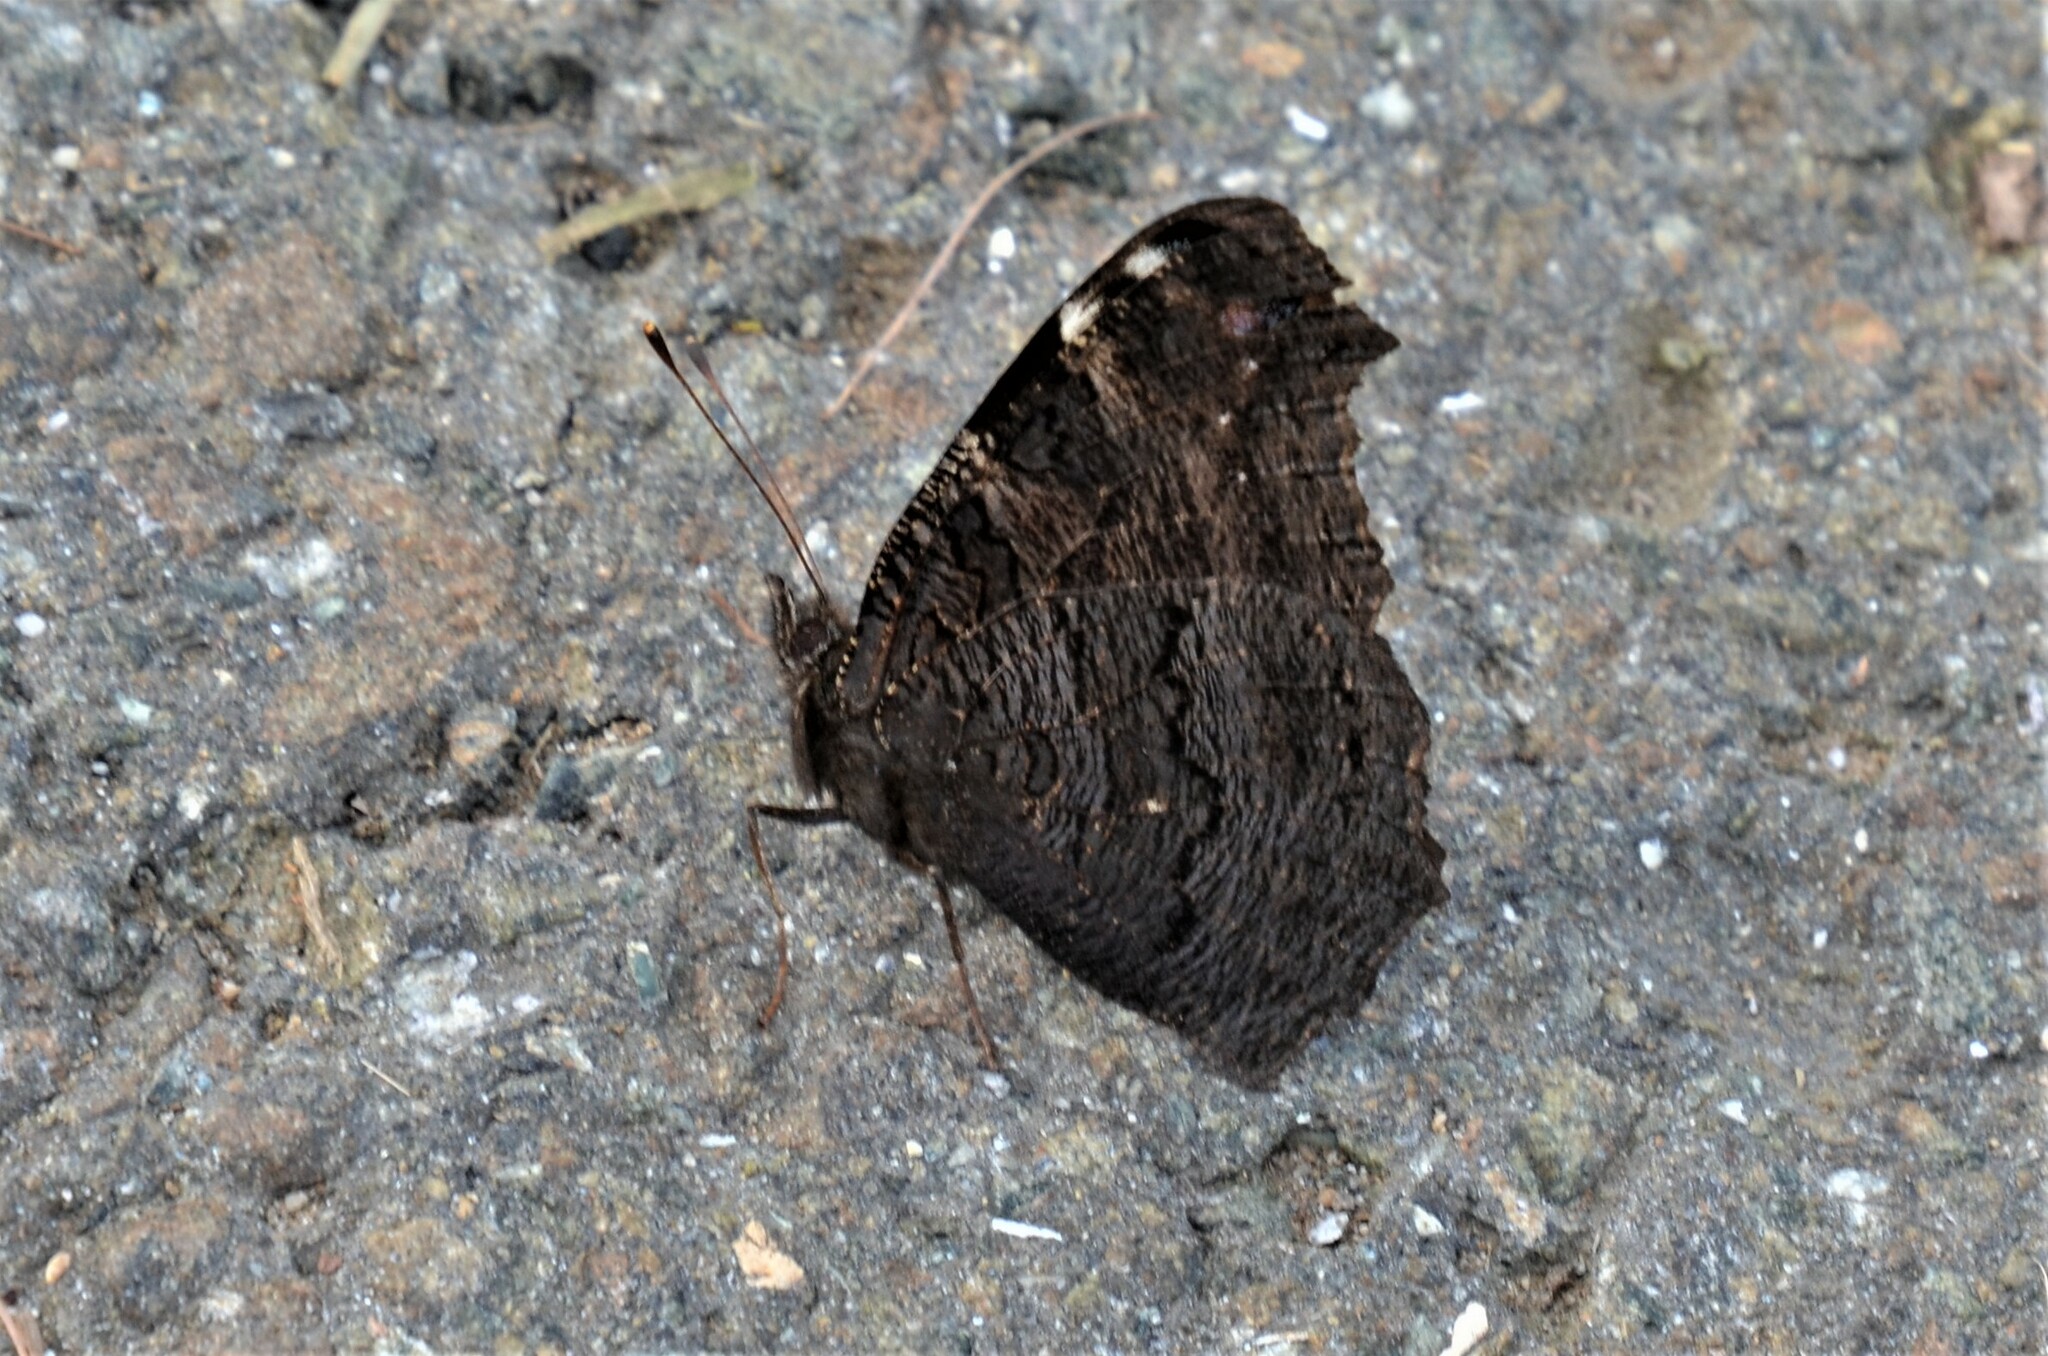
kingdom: Animalia
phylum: Arthropoda
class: Insecta
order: Lepidoptera
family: Nymphalidae
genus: Aglais
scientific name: Aglais io
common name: Peacock
